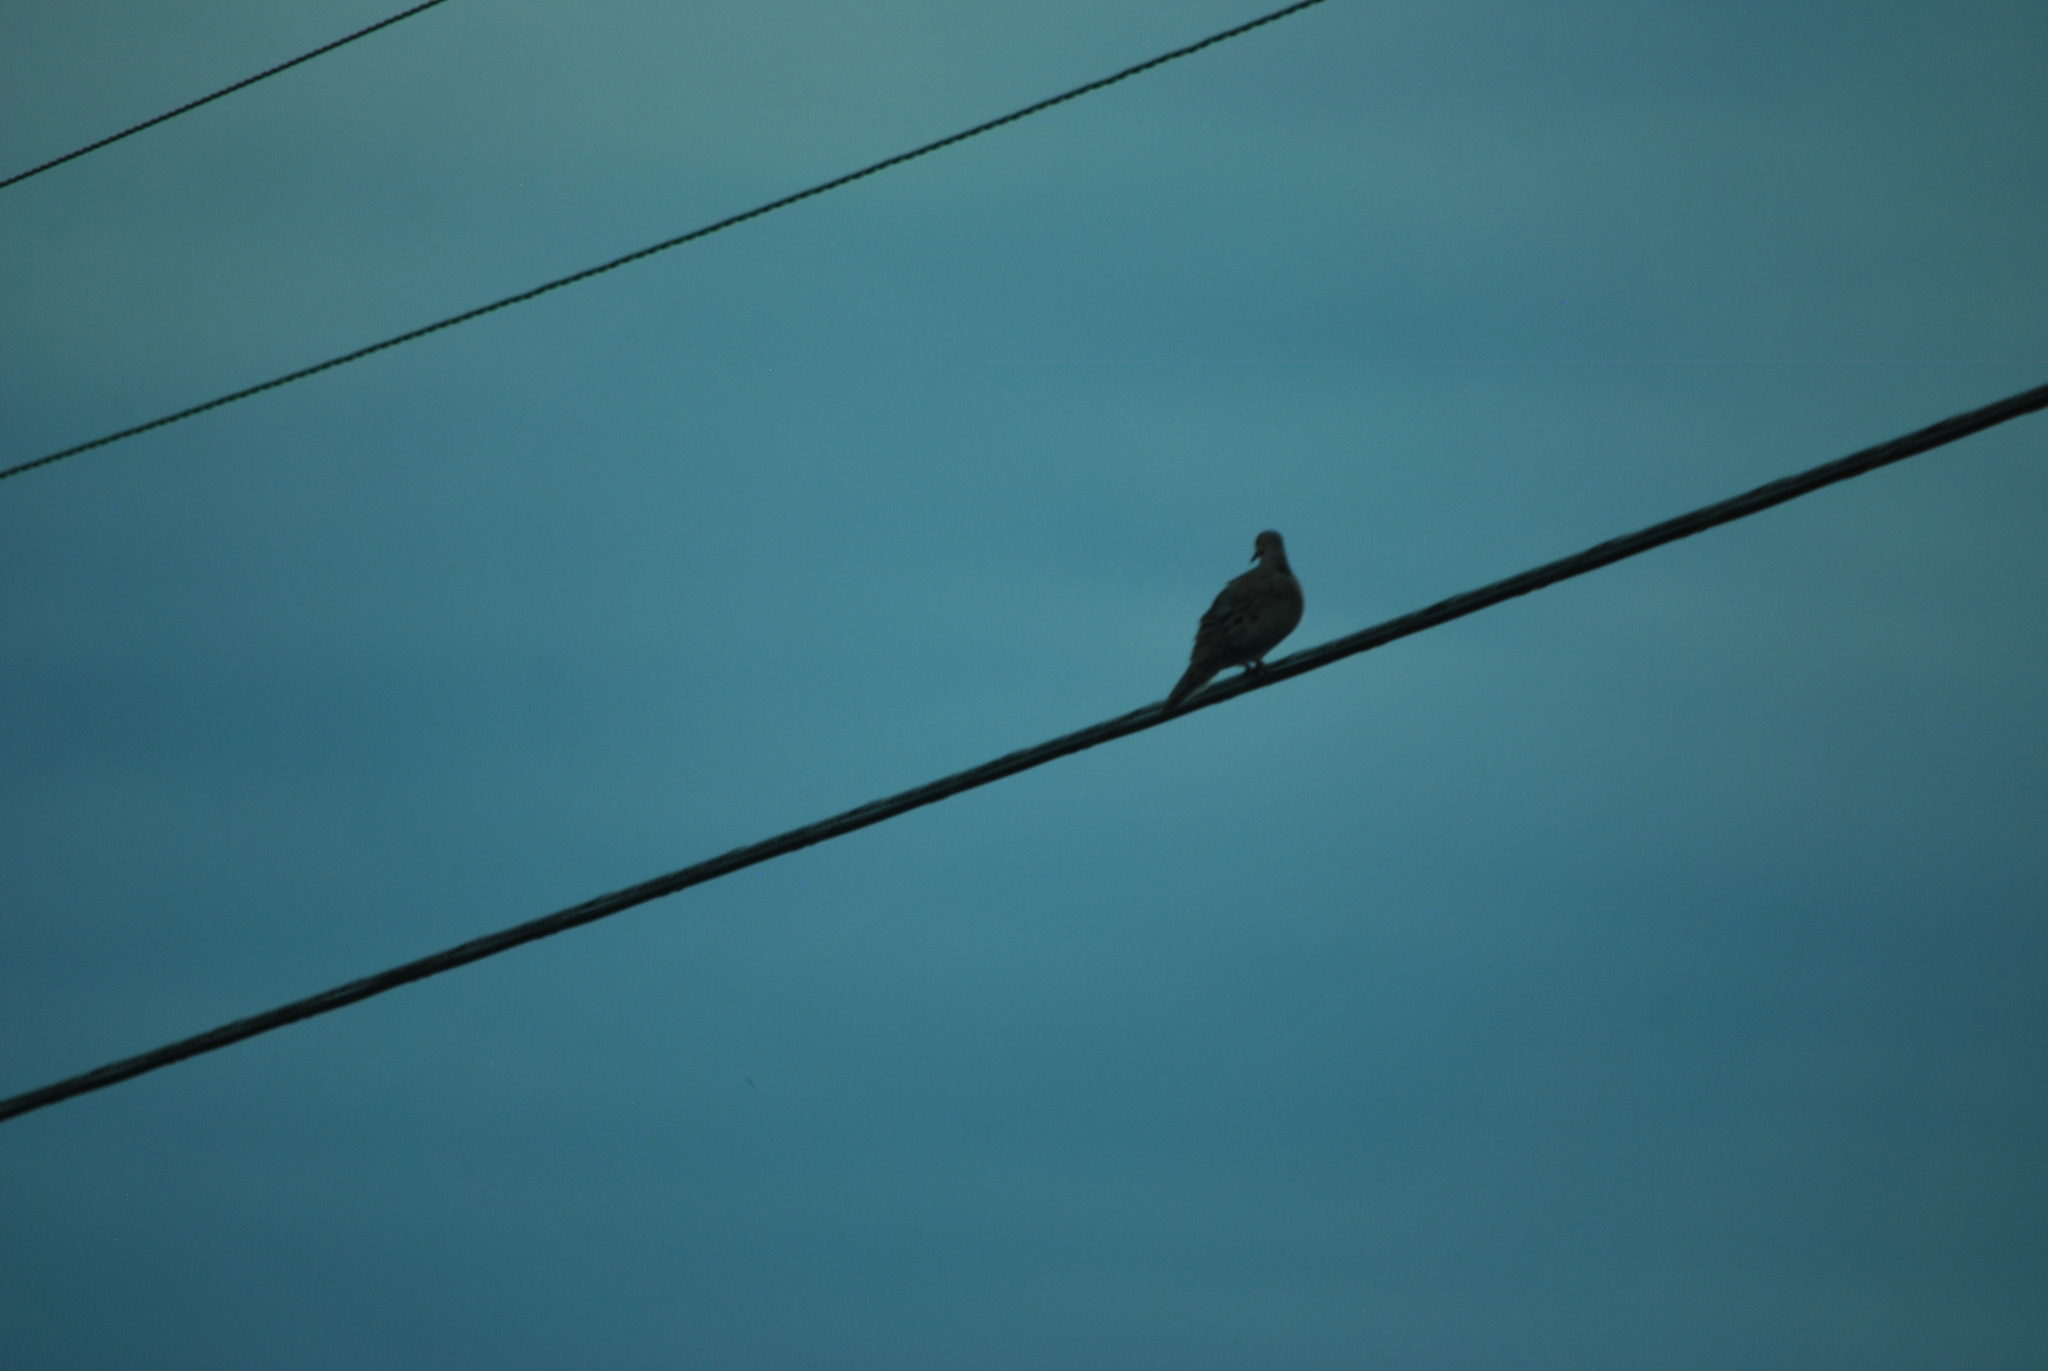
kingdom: Animalia
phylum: Chordata
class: Aves
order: Columbiformes
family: Columbidae
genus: Zenaida
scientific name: Zenaida macroura
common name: Mourning dove
